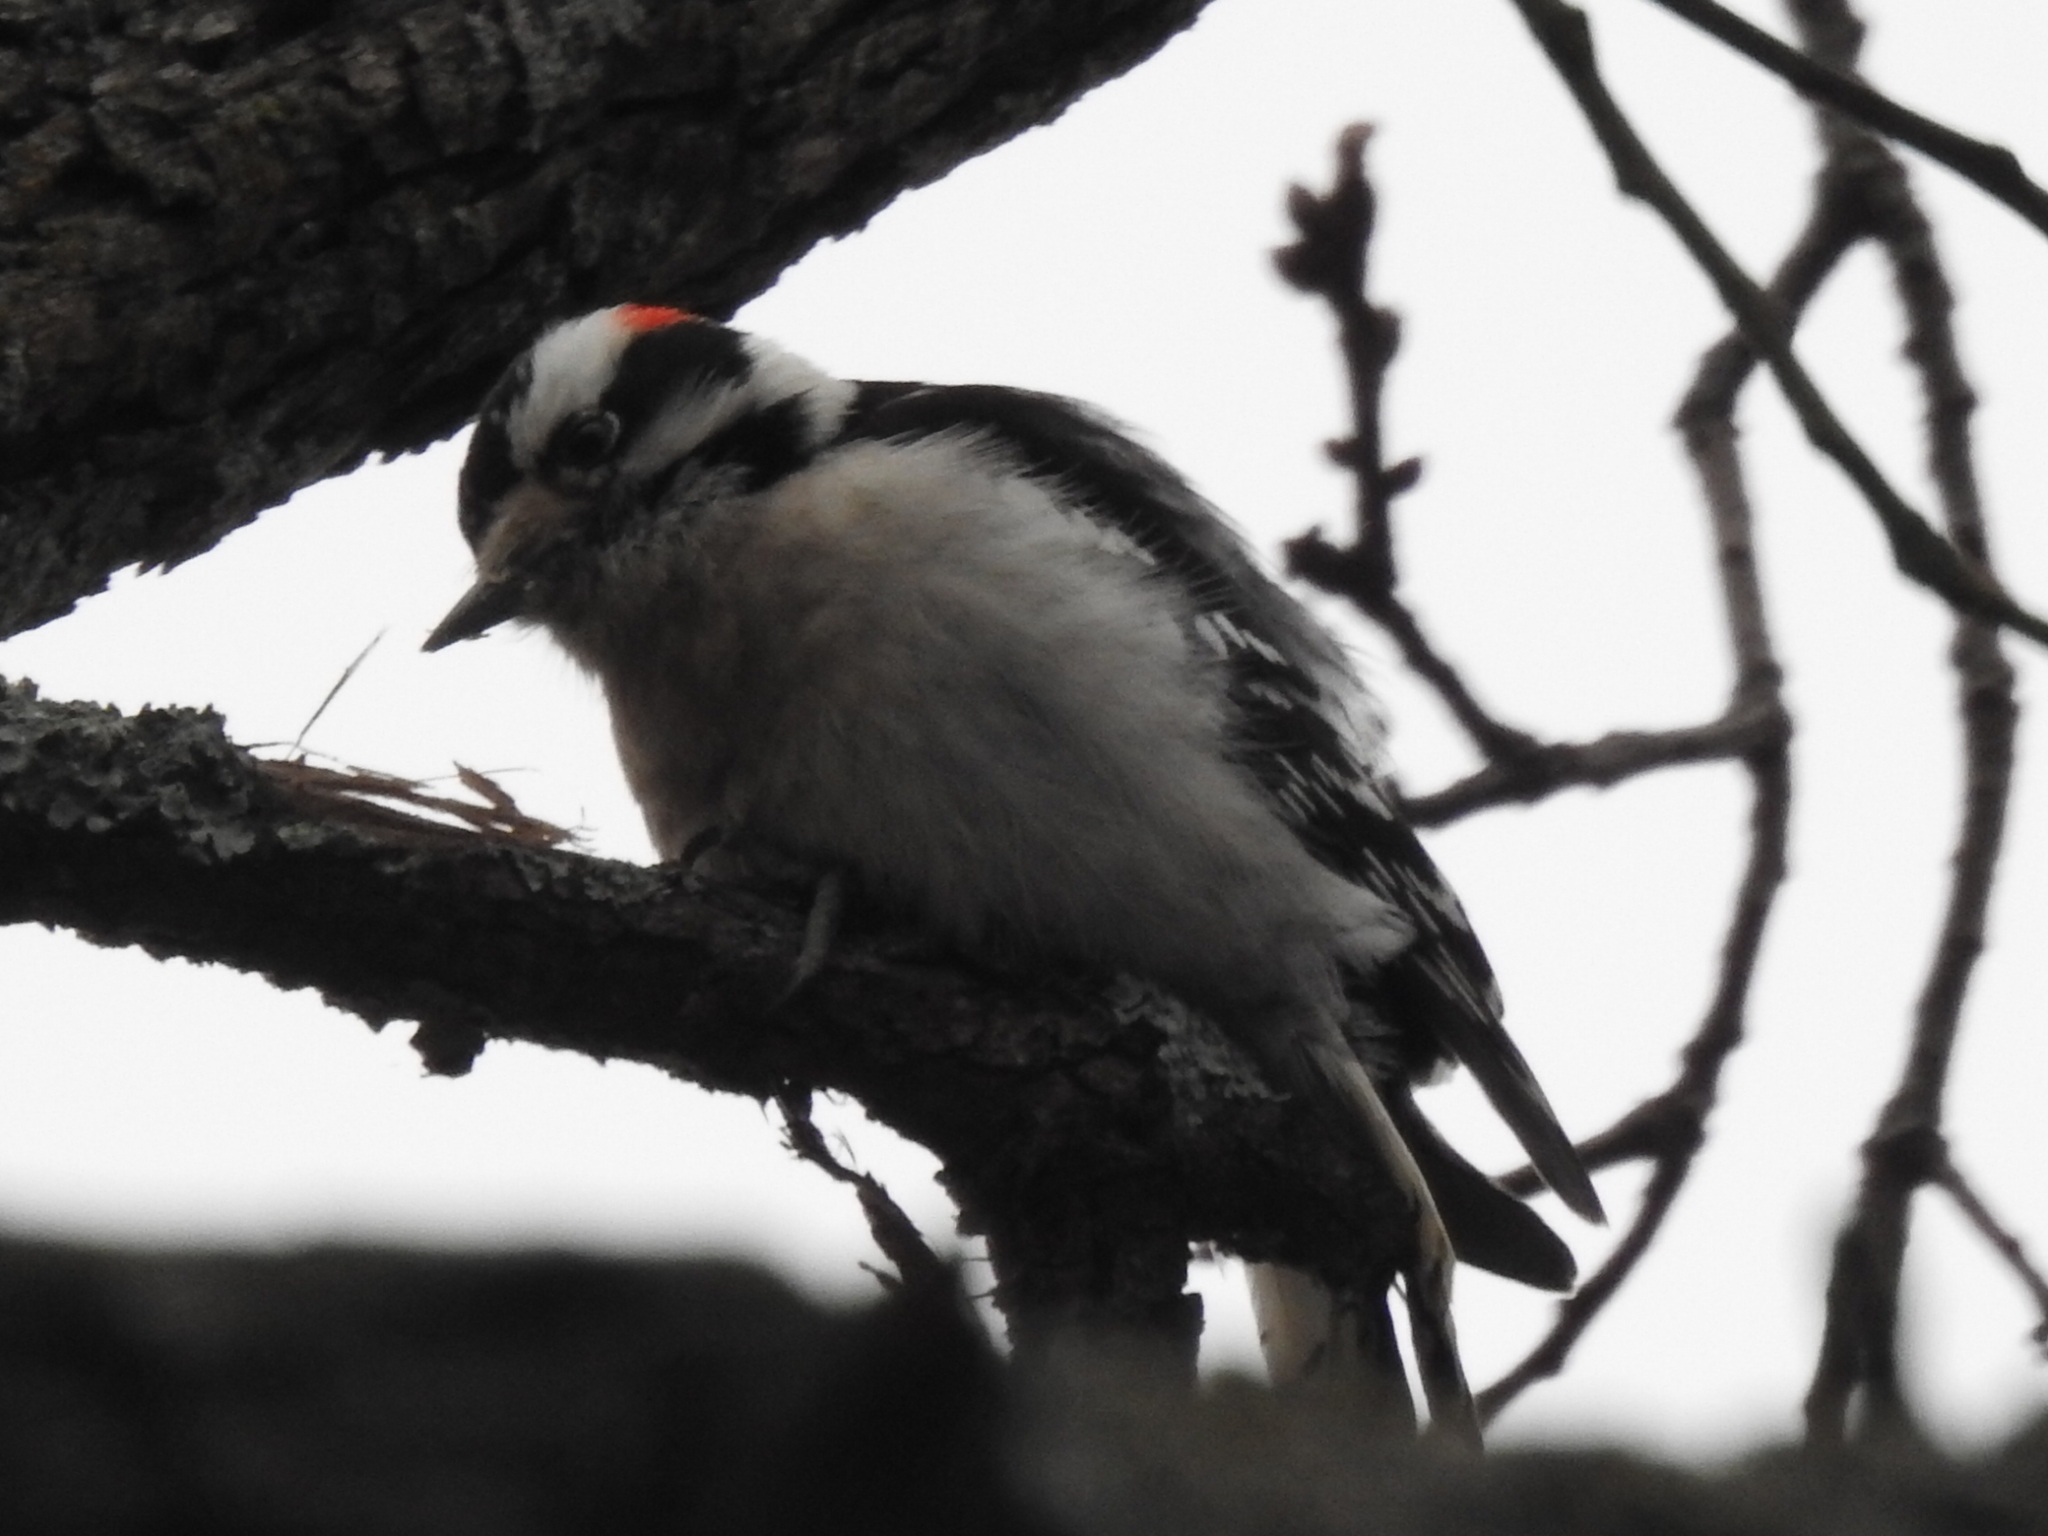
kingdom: Animalia
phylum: Chordata
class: Aves
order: Piciformes
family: Picidae
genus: Dryobates
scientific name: Dryobates pubescens
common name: Downy woodpecker
